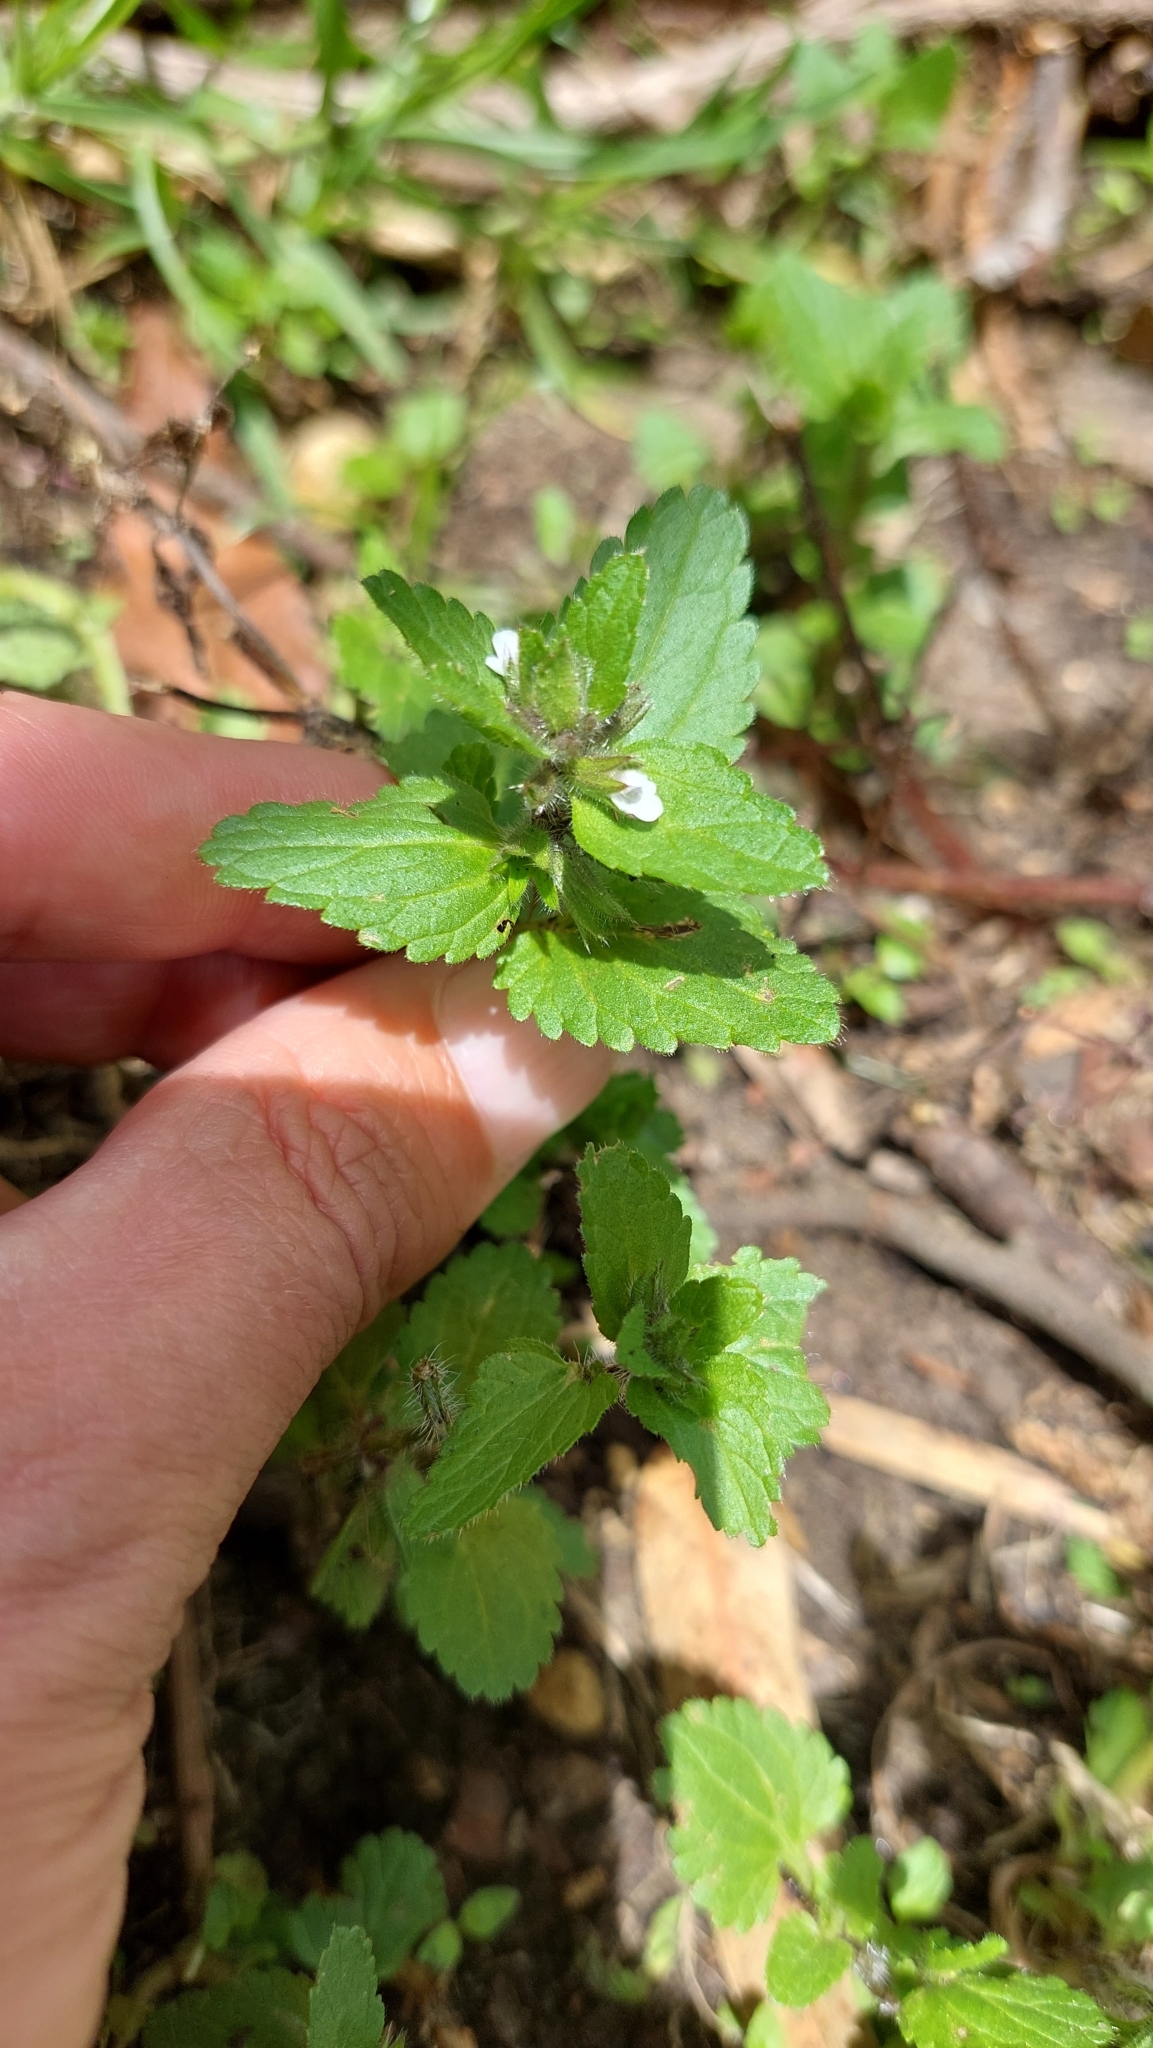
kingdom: Plantae
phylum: Tracheophyta
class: Magnoliopsida
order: Lamiales
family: Plantaginaceae
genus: Veronica
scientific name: Veronica javanica
